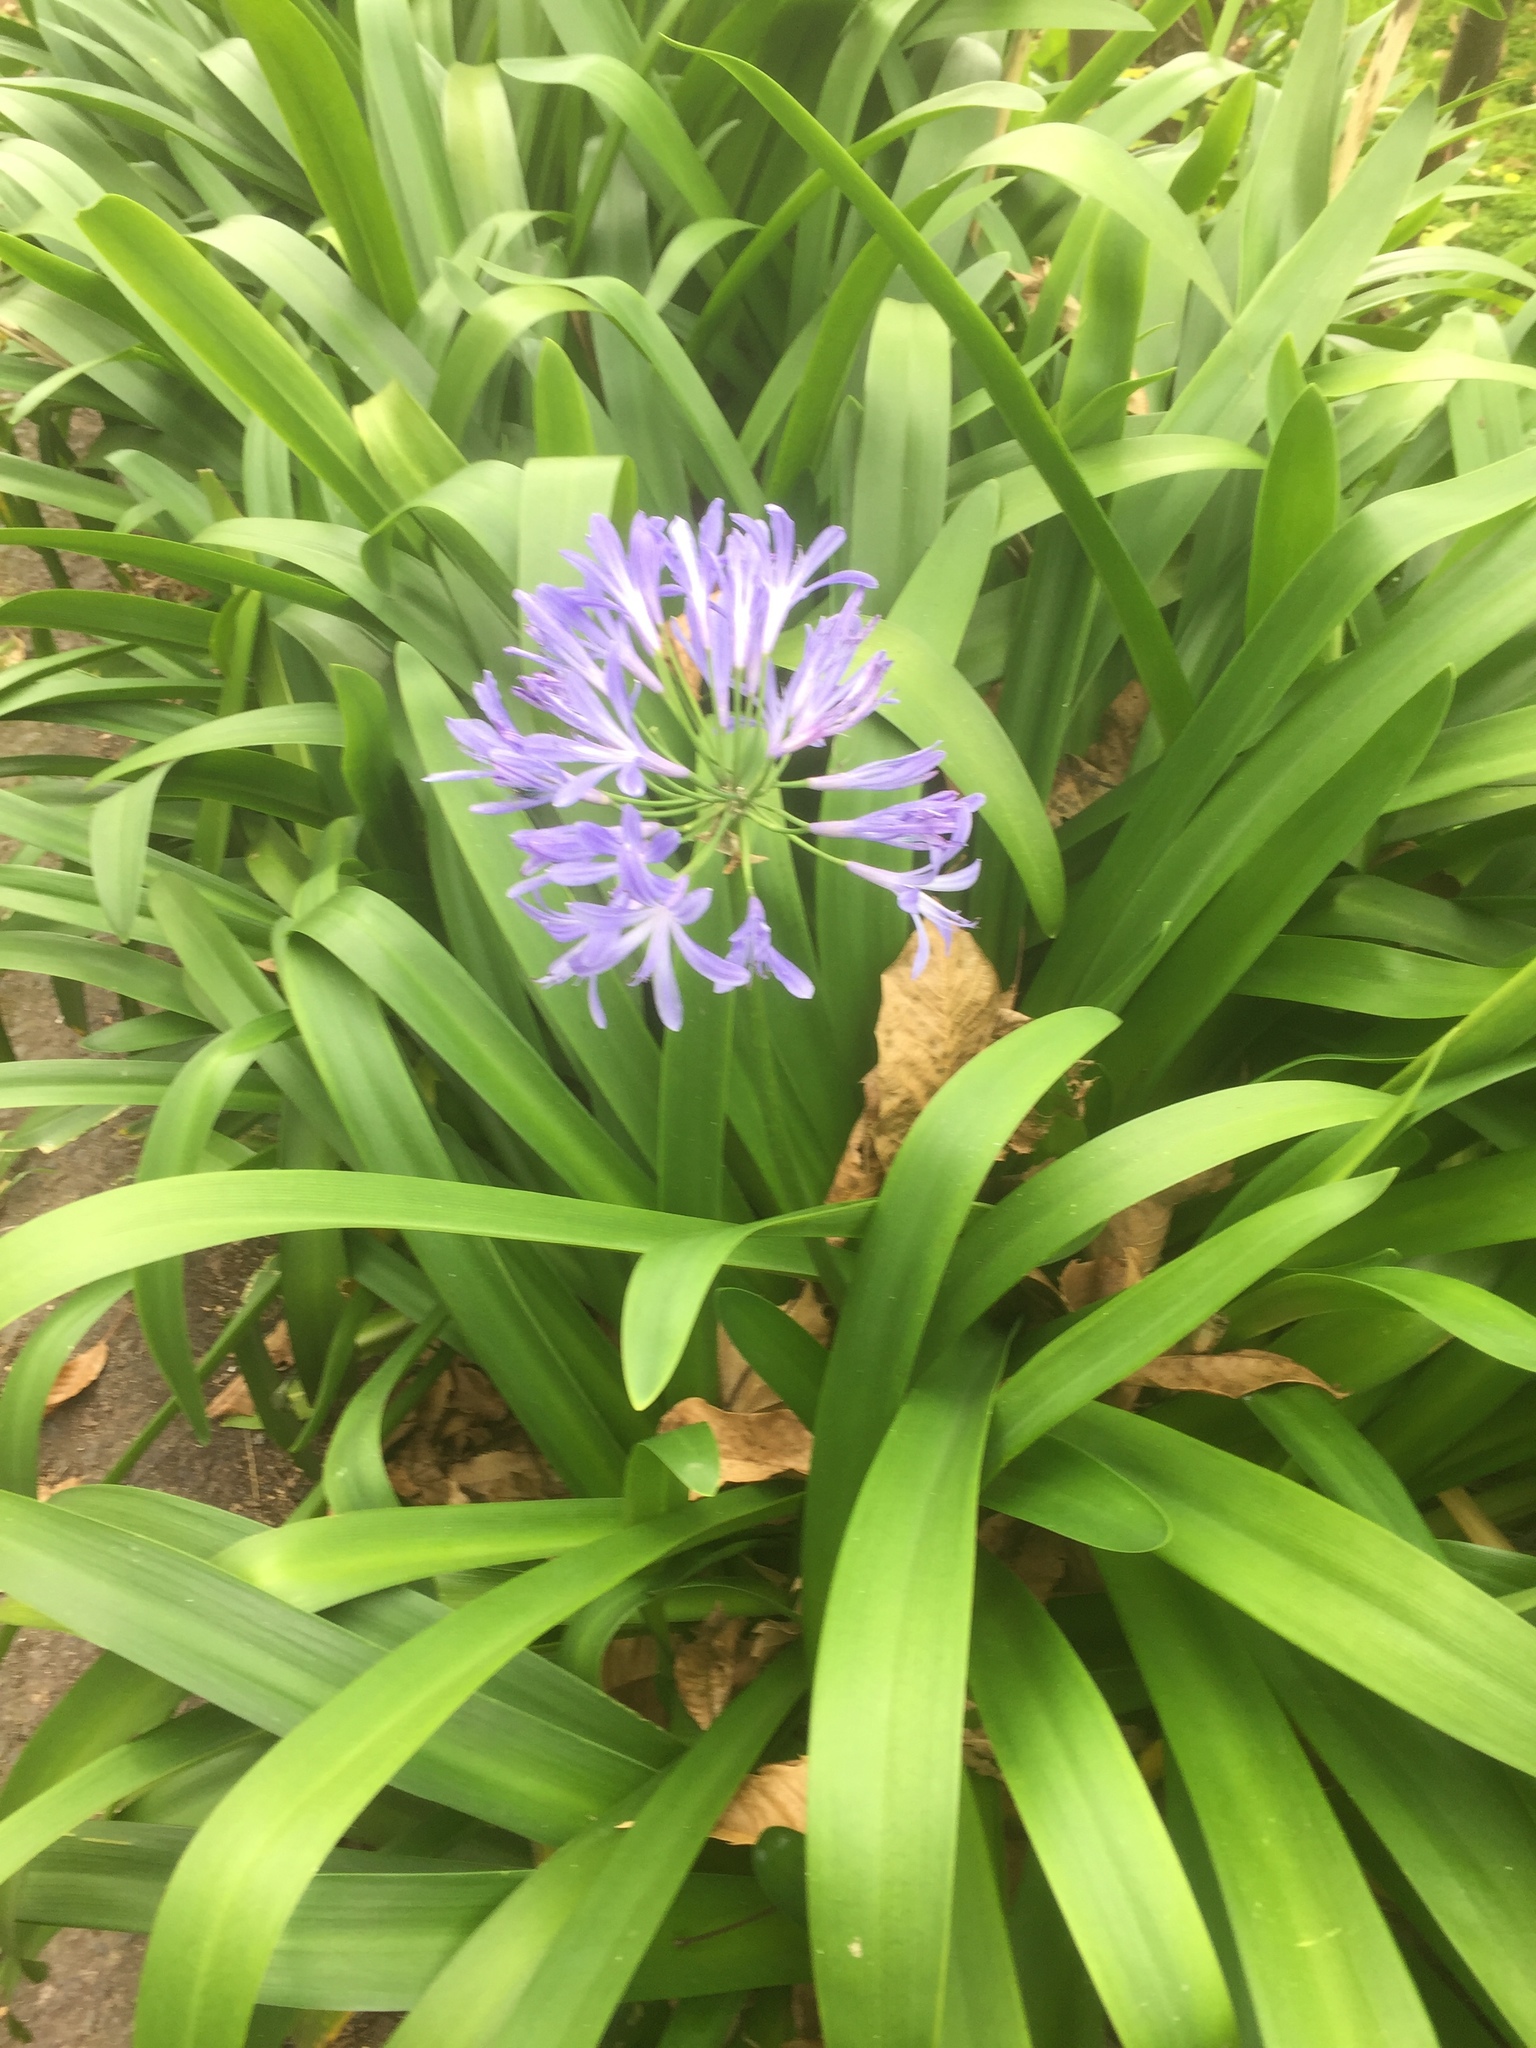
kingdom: Plantae
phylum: Tracheophyta
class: Liliopsida
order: Asparagales
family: Amaryllidaceae
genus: Agapanthus
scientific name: Agapanthus praecox
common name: African-lily
